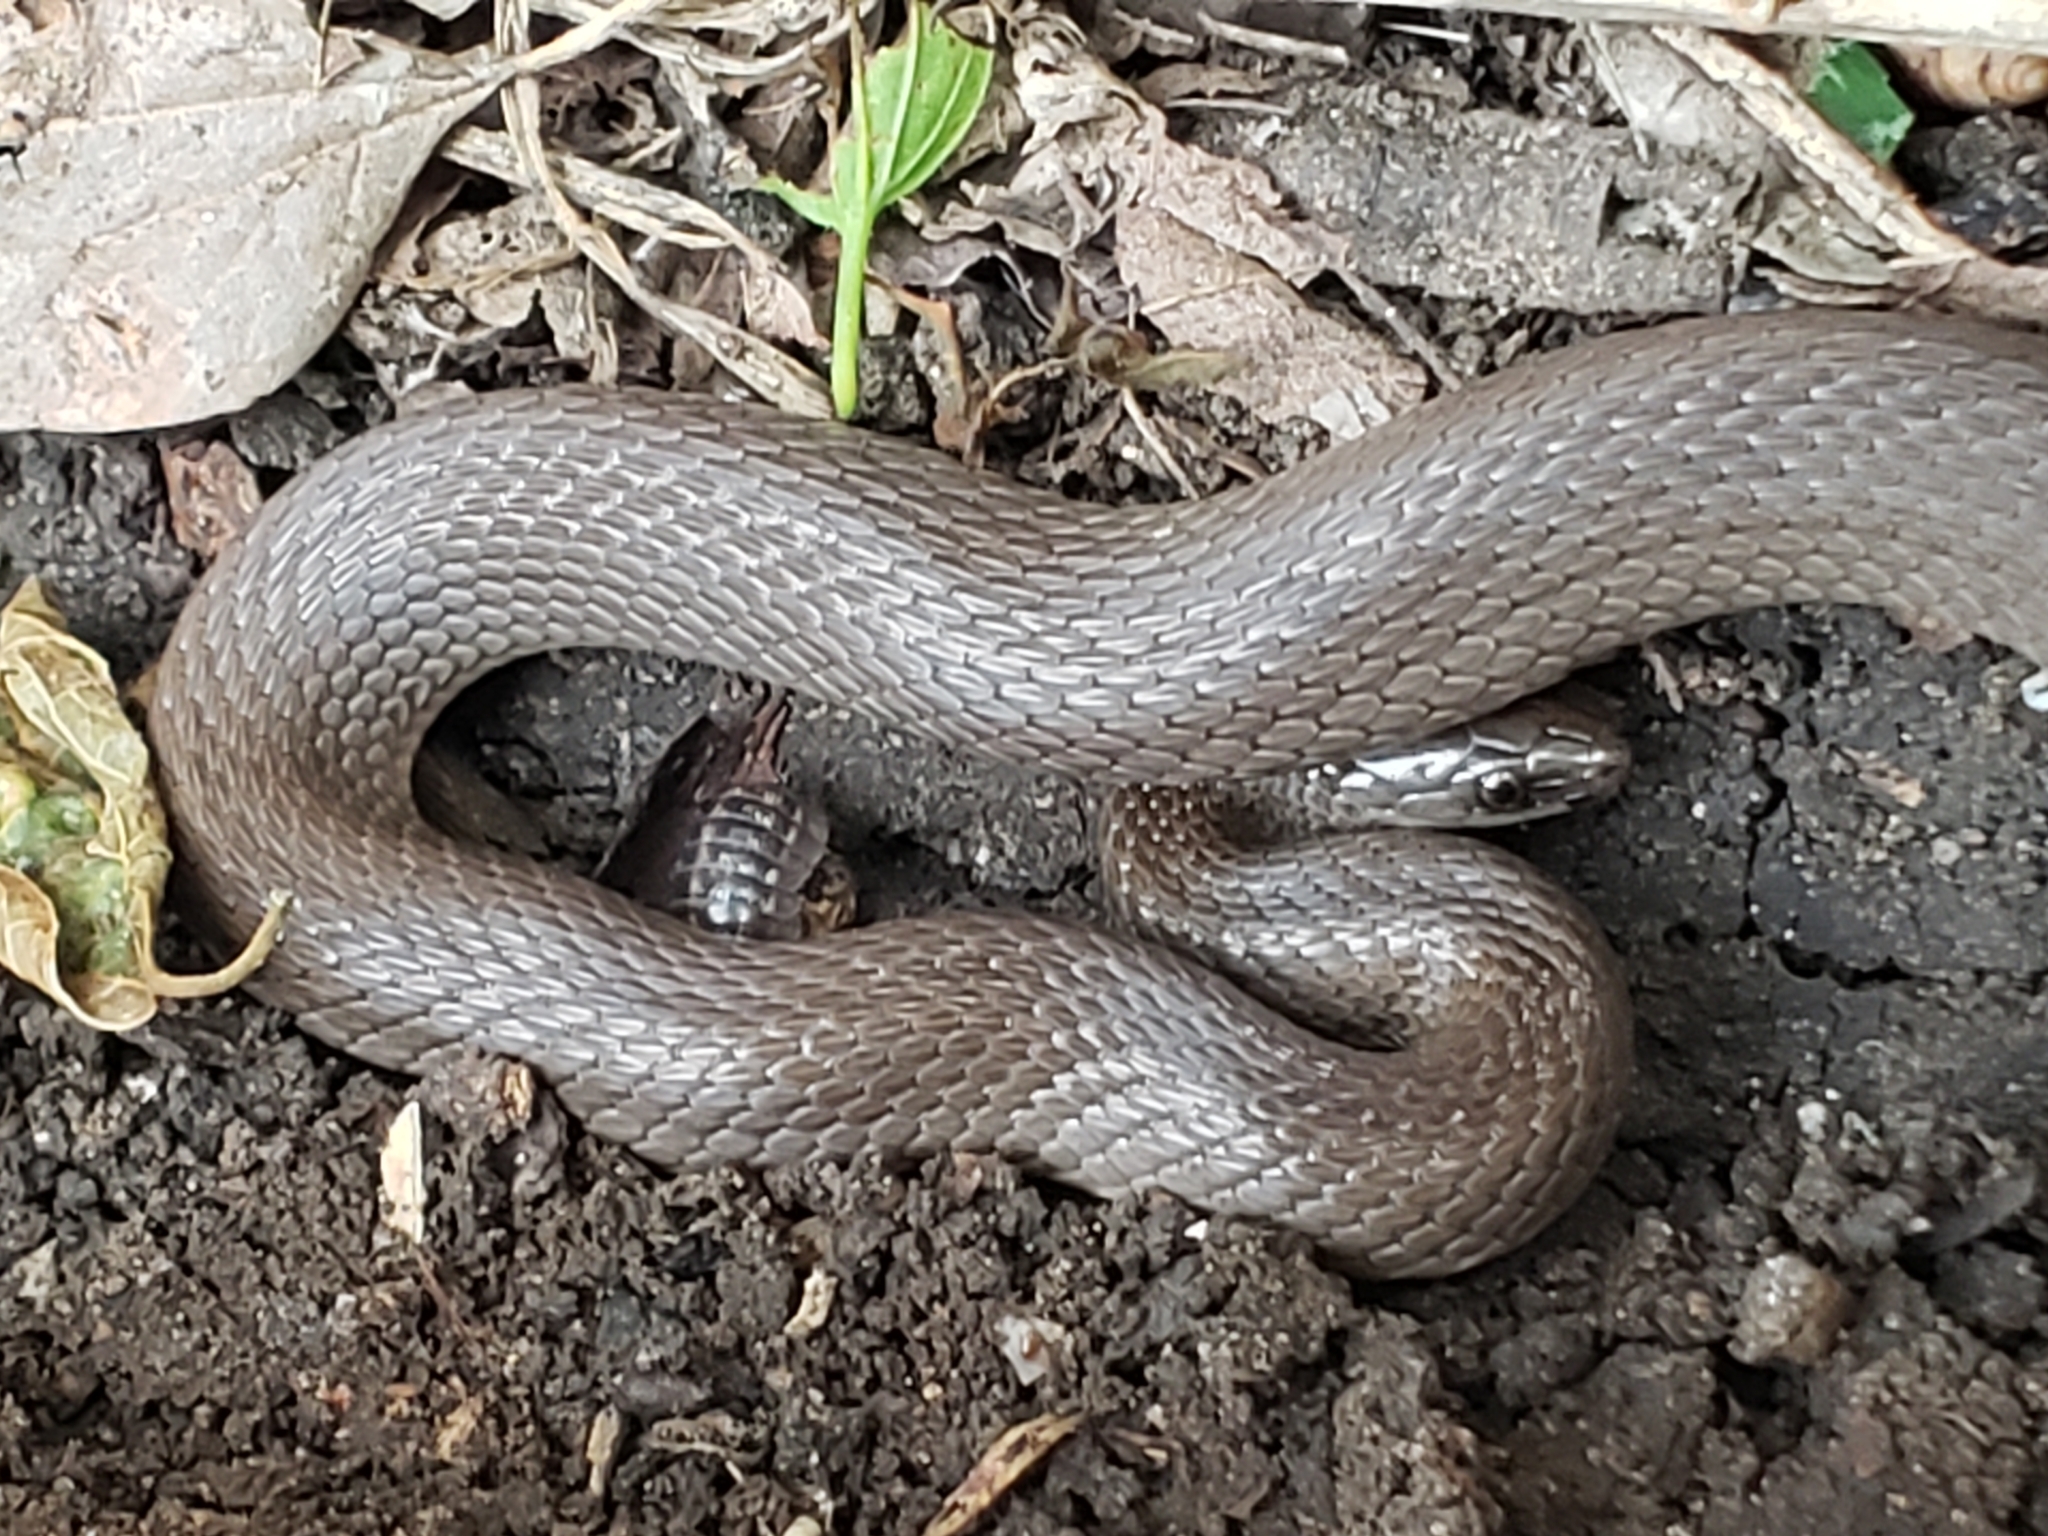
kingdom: Animalia
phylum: Chordata
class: Squamata
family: Colubridae
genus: Haldea
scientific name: Haldea striatula
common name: Rough earth snake
